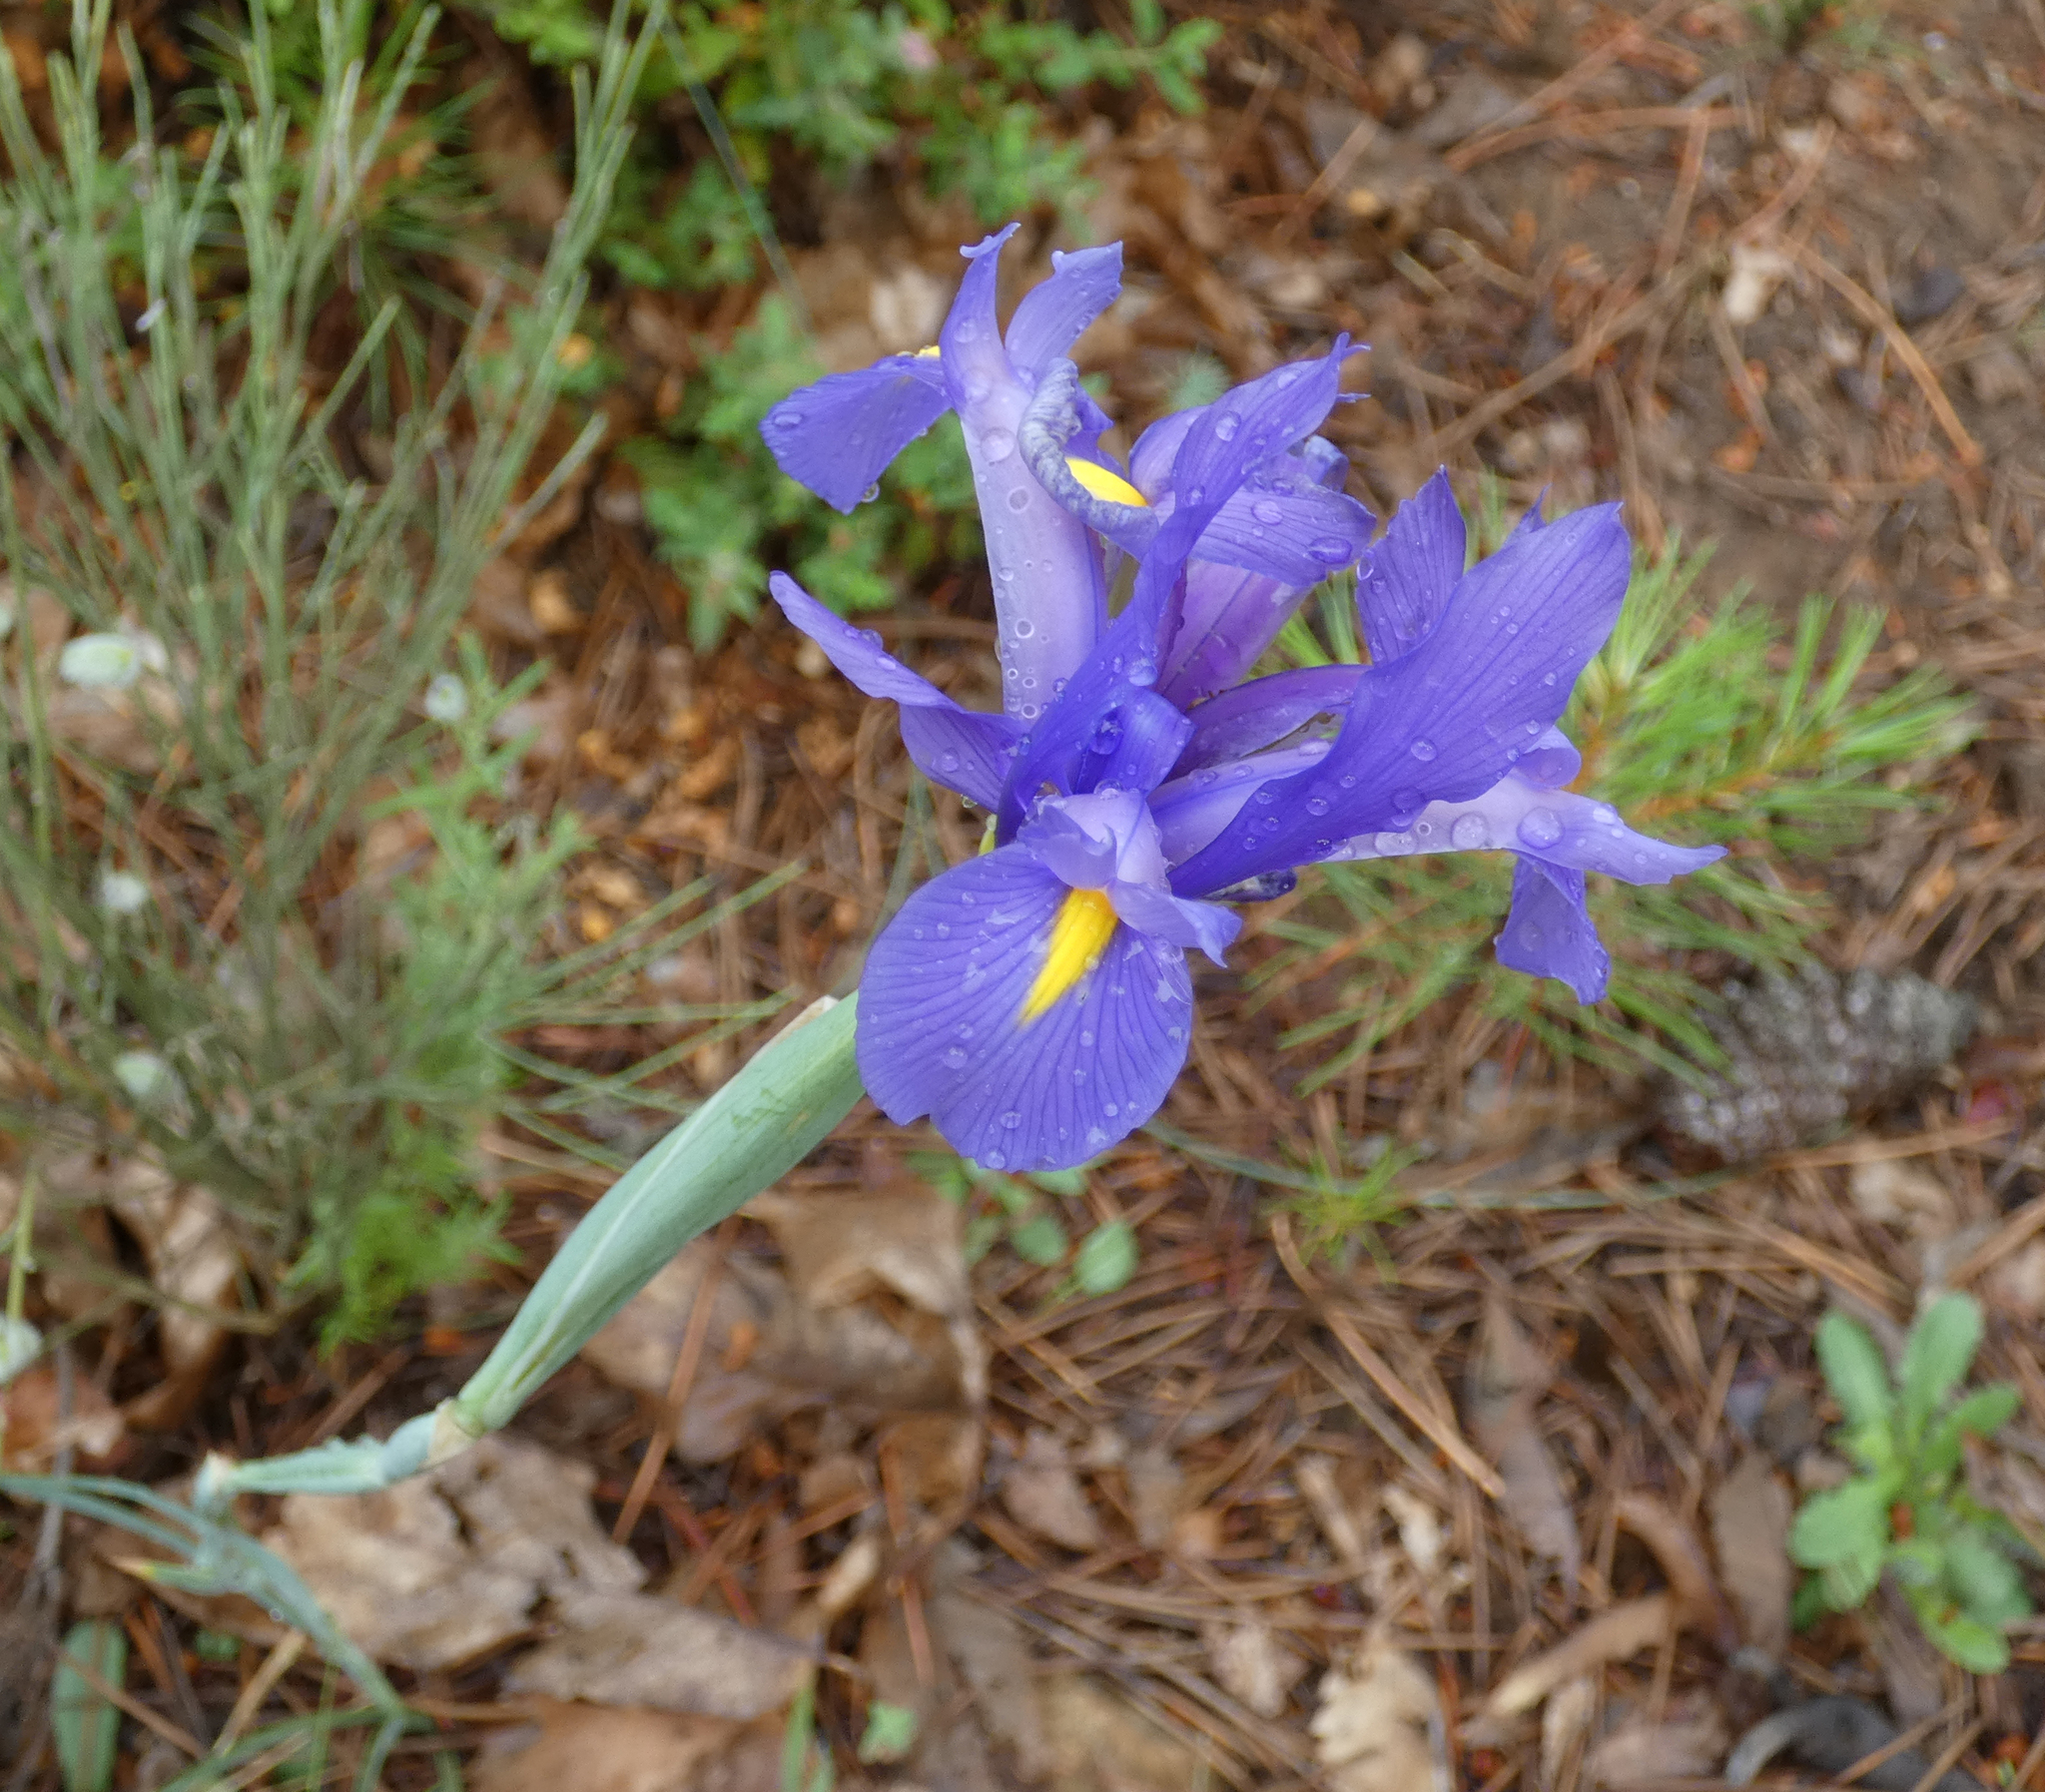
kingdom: Plantae
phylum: Tracheophyta
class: Liliopsida
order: Asparagales
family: Iridaceae
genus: Iris
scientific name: Iris xiphium
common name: Spanish iris
